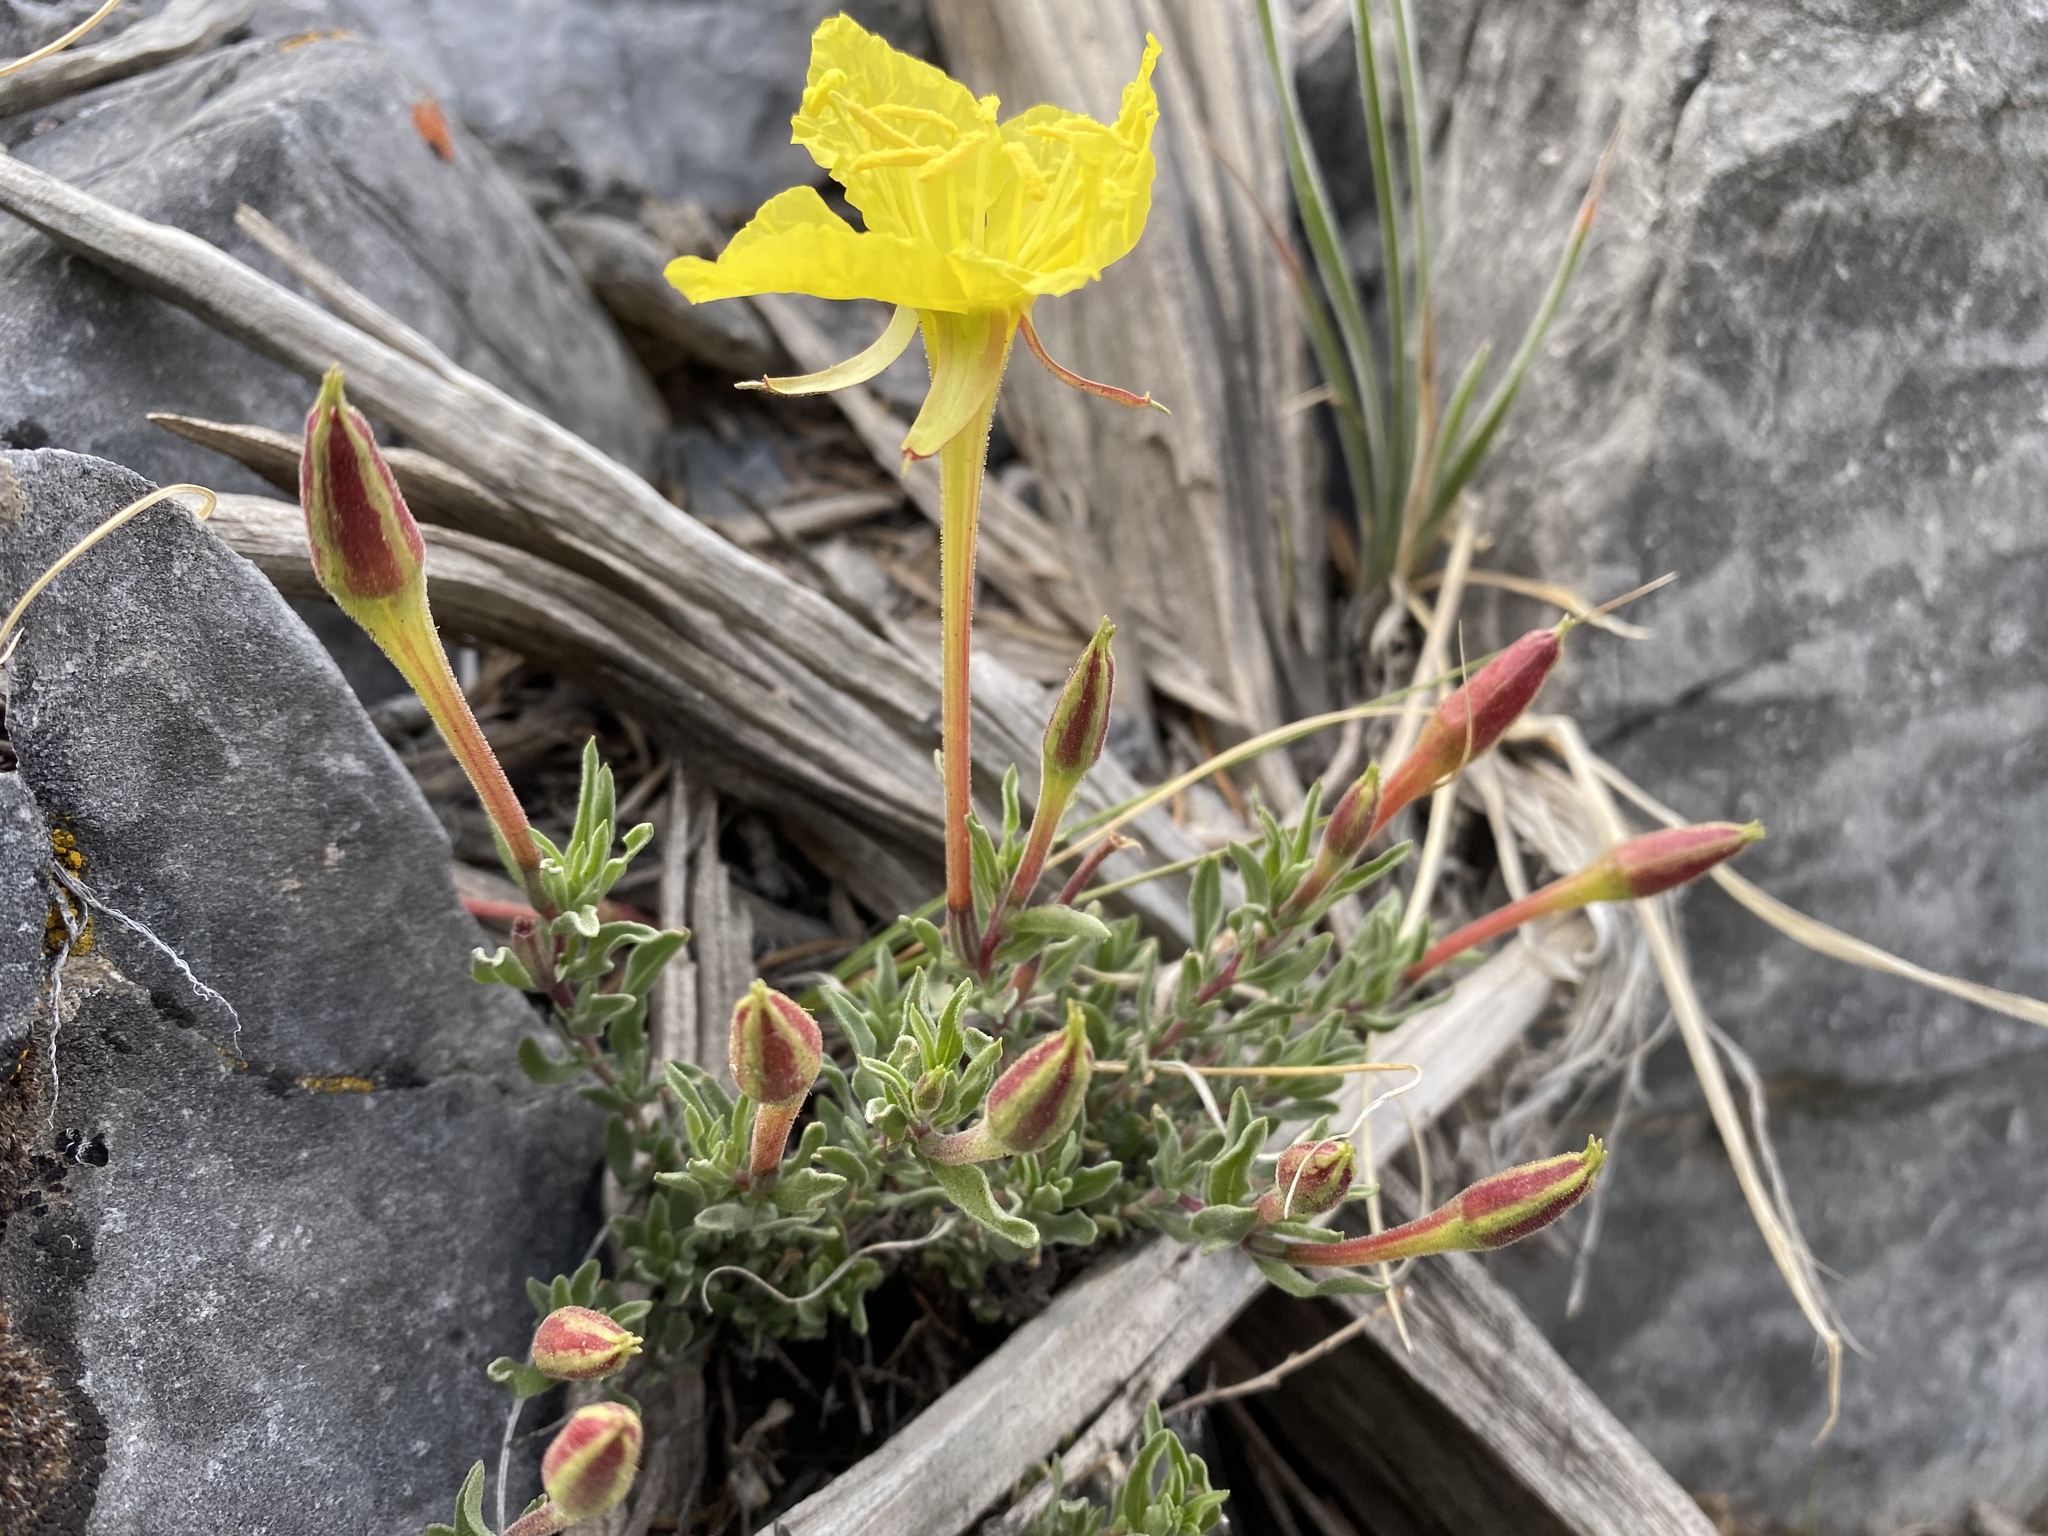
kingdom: Plantae
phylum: Tracheophyta
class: Magnoliopsida
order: Myrtales
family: Onagraceae
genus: Oenothera
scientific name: Oenothera lavandulifolia
